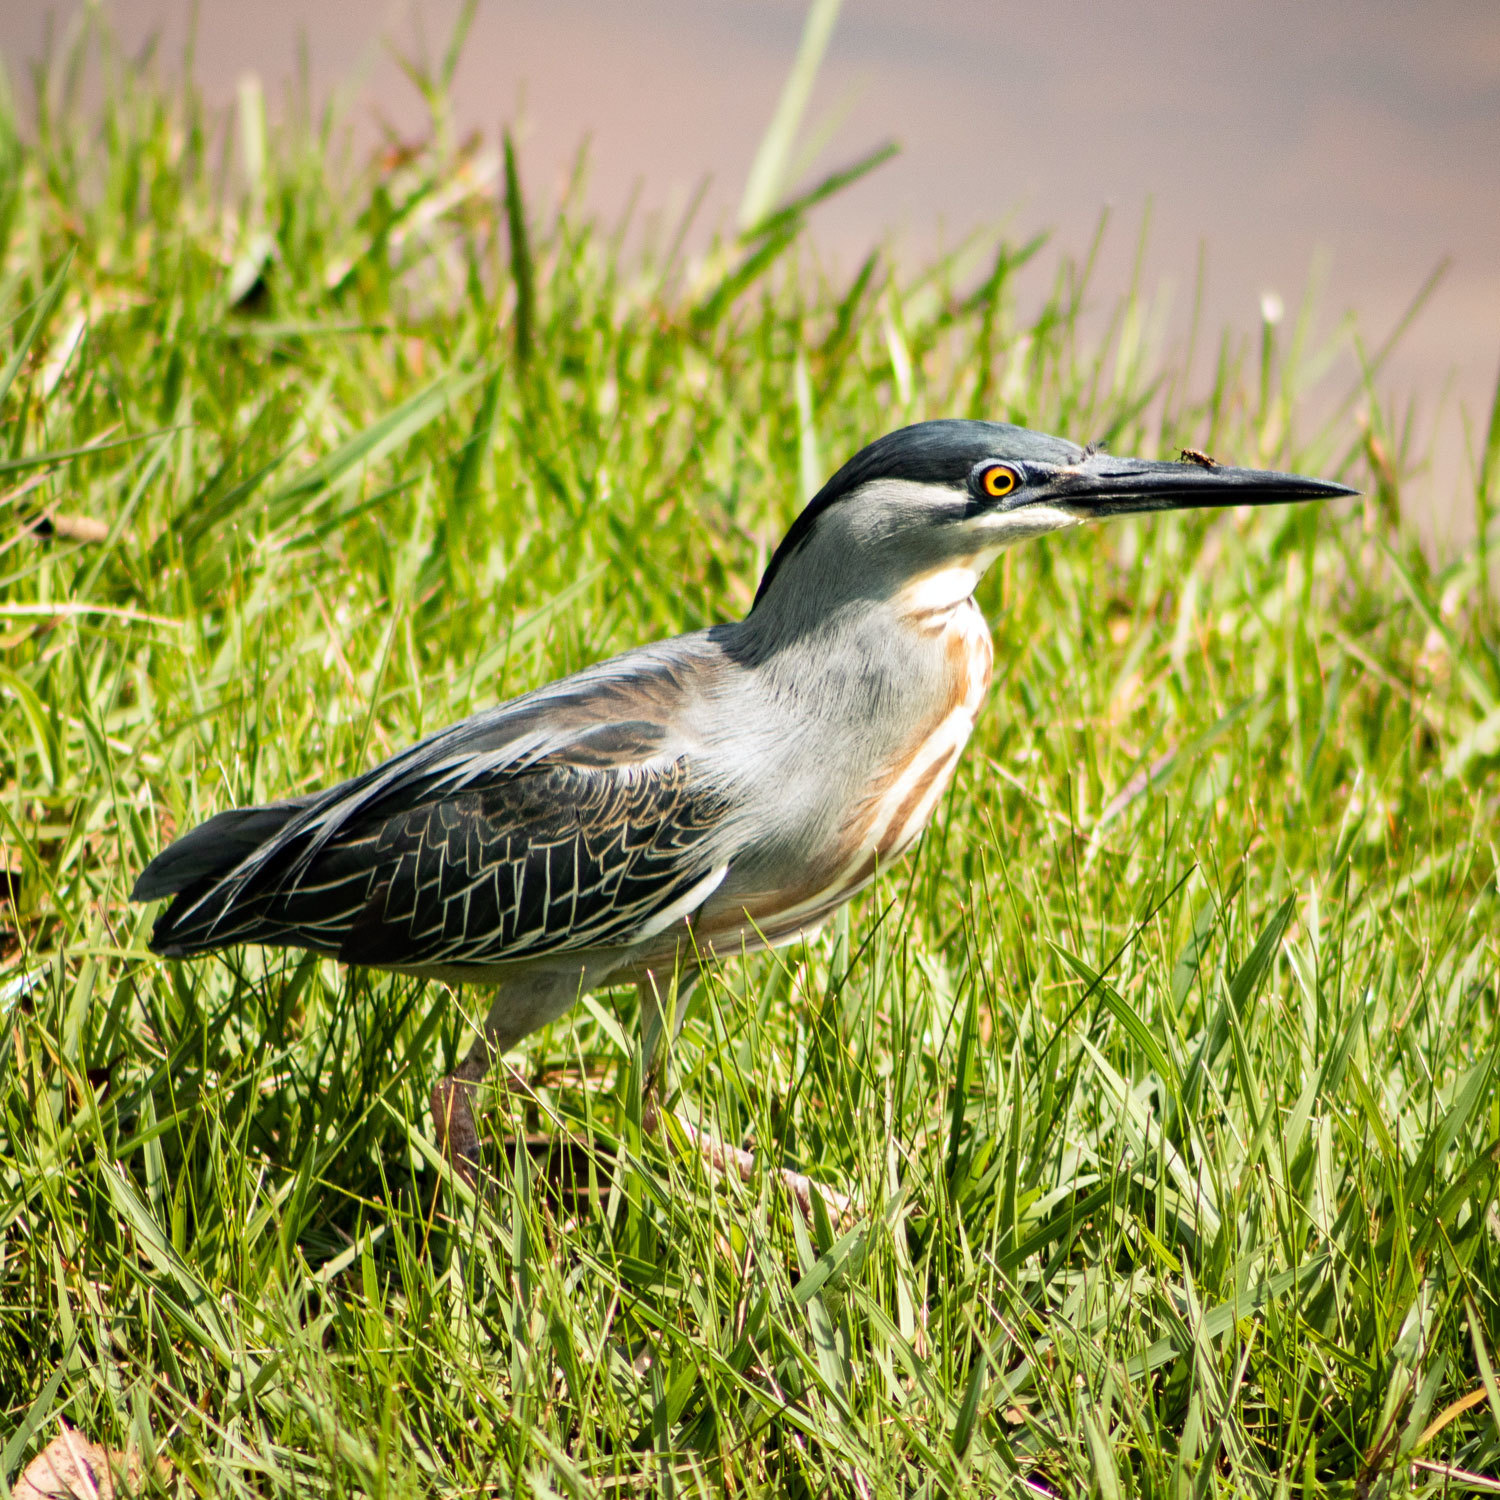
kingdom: Animalia
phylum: Chordata
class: Aves
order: Pelecaniformes
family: Ardeidae
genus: Butorides
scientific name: Butorides striata
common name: Striated heron
